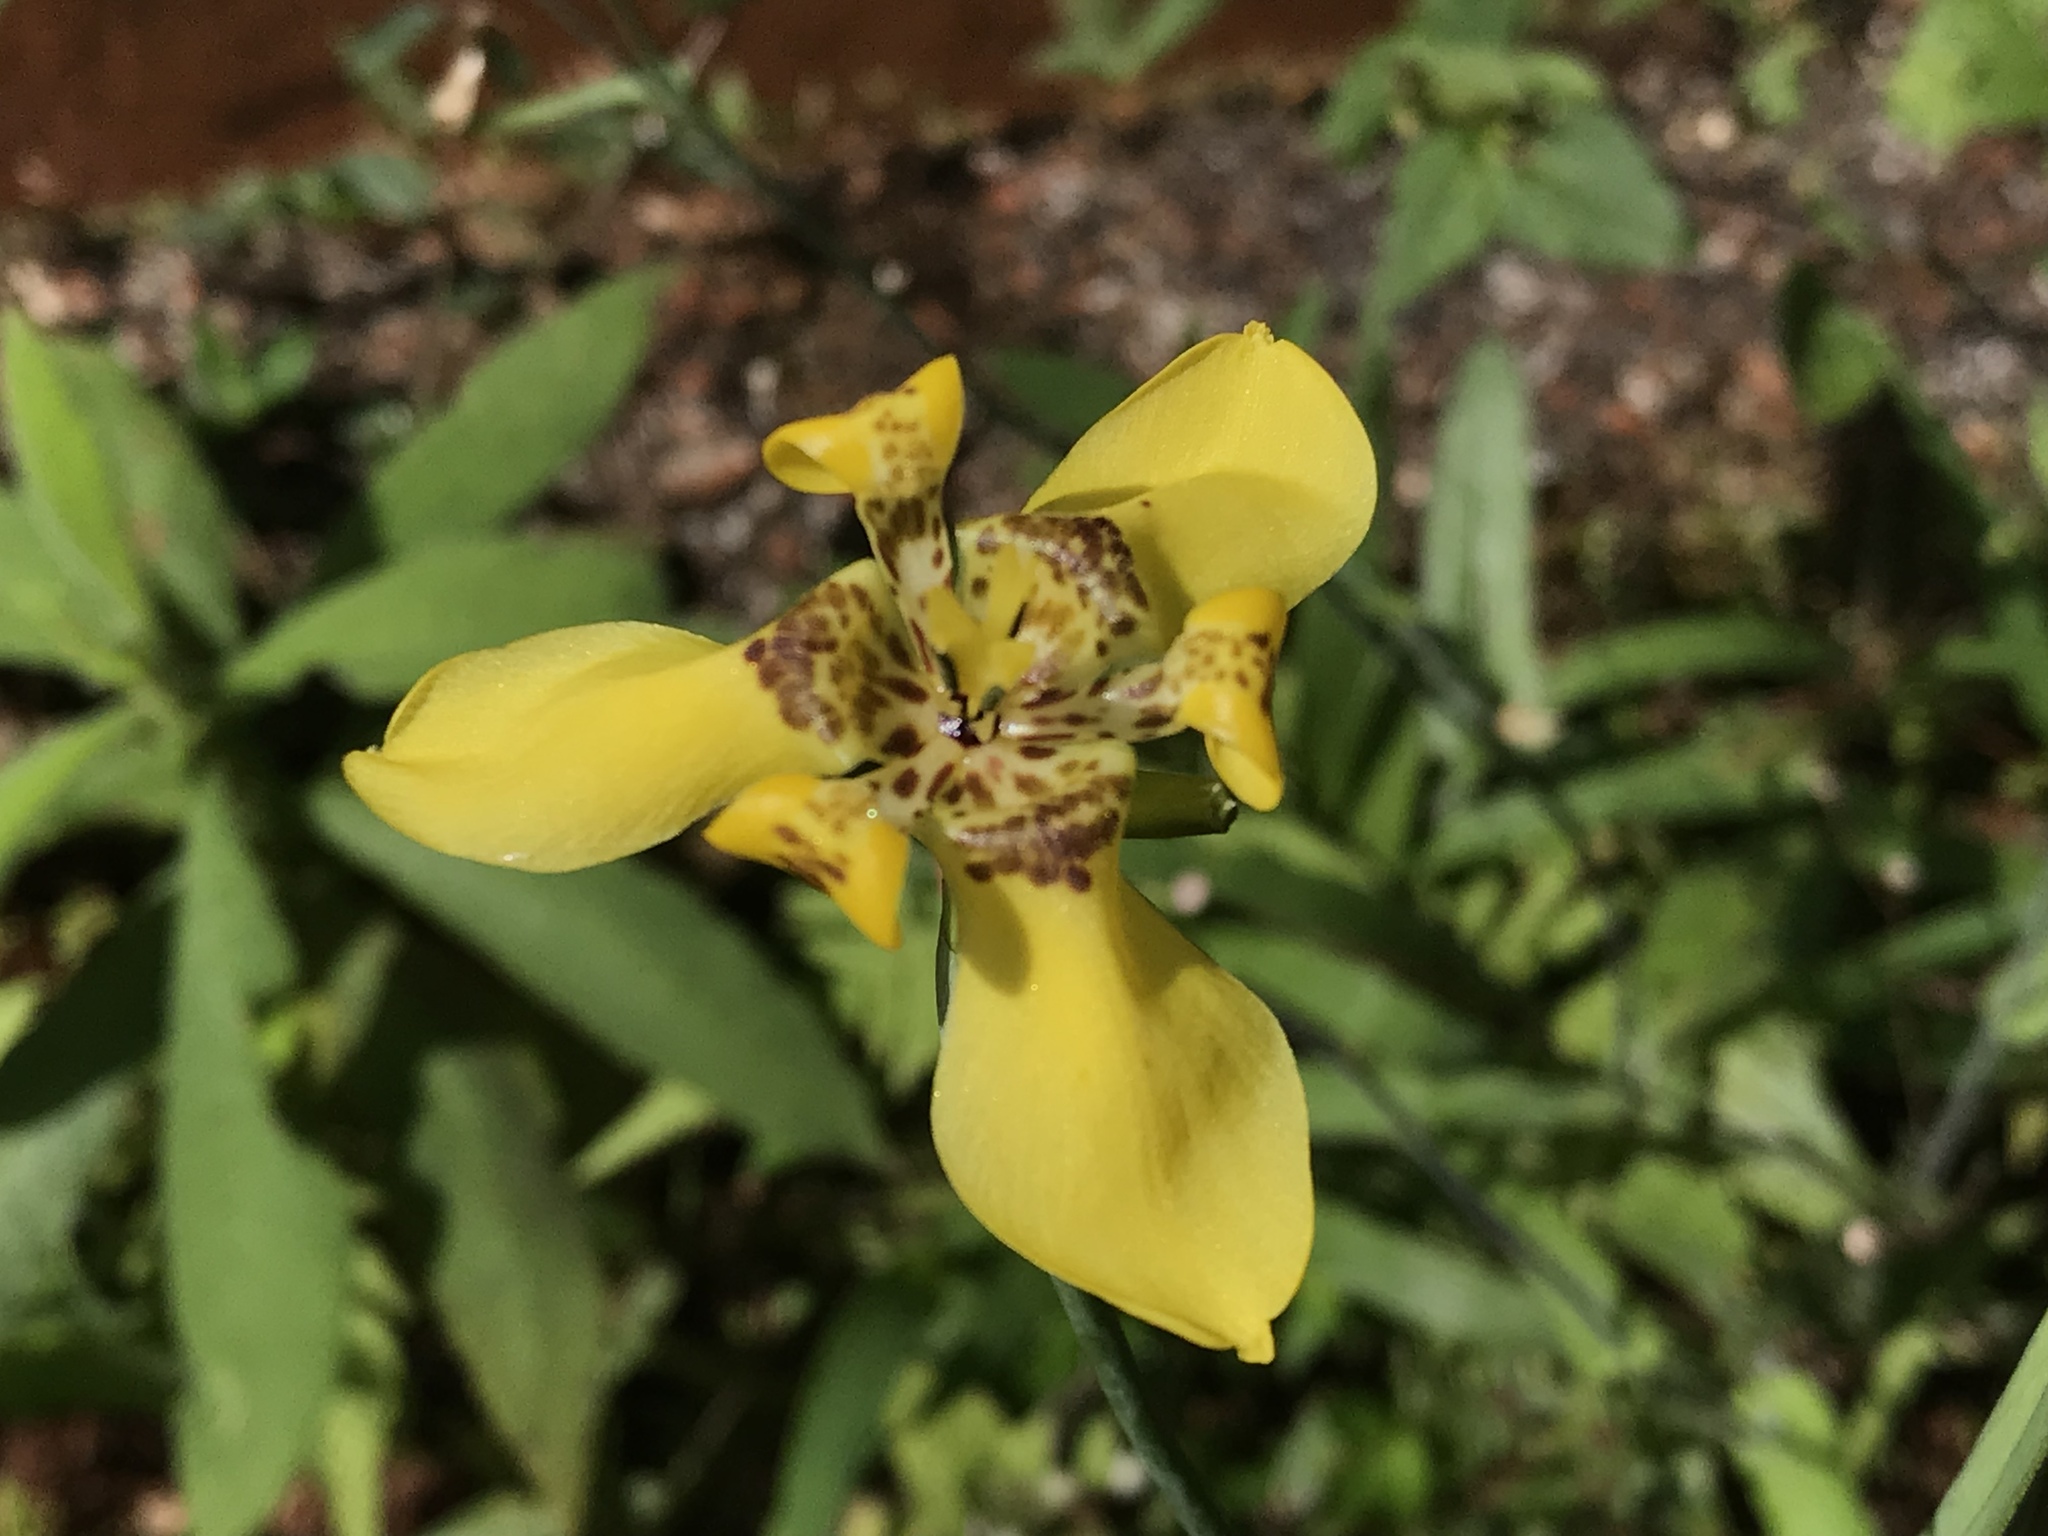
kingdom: Plantae
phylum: Tracheophyta
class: Liliopsida
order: Asparagales
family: Iridaceae
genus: Trimezia
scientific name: Trimezia steyermarkii
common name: Trimezia
